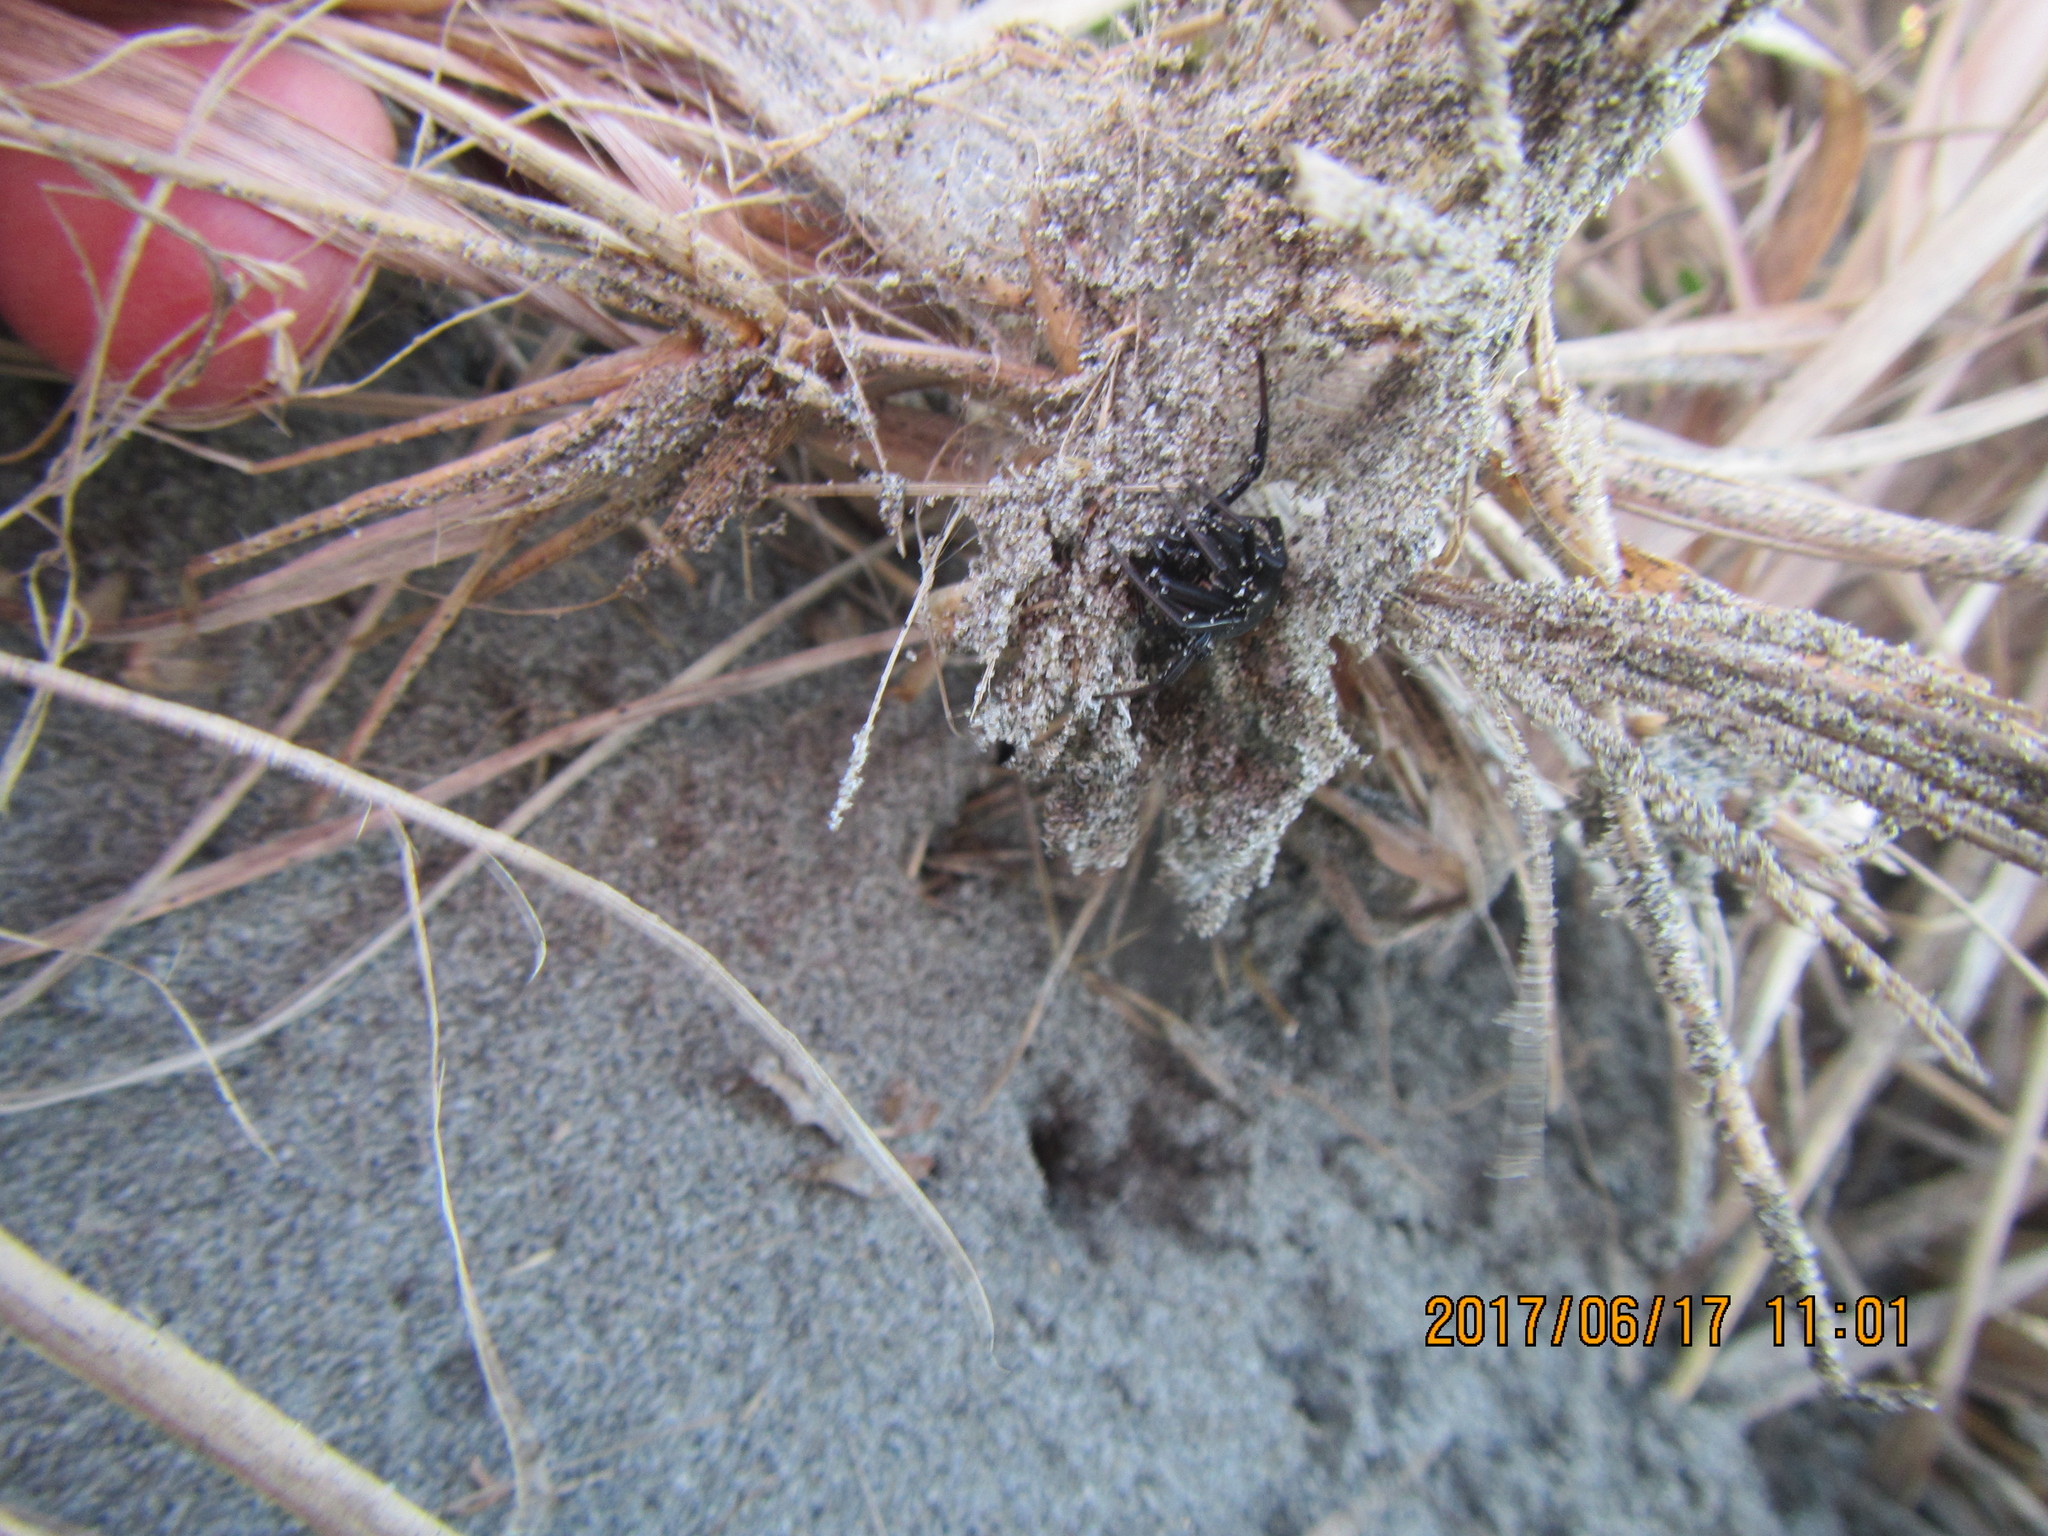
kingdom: Animalia
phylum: Arthropoda
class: Arachnida
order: Araneae
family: Theridiidae
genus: Latrodectus
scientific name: Latrodectus katipo
